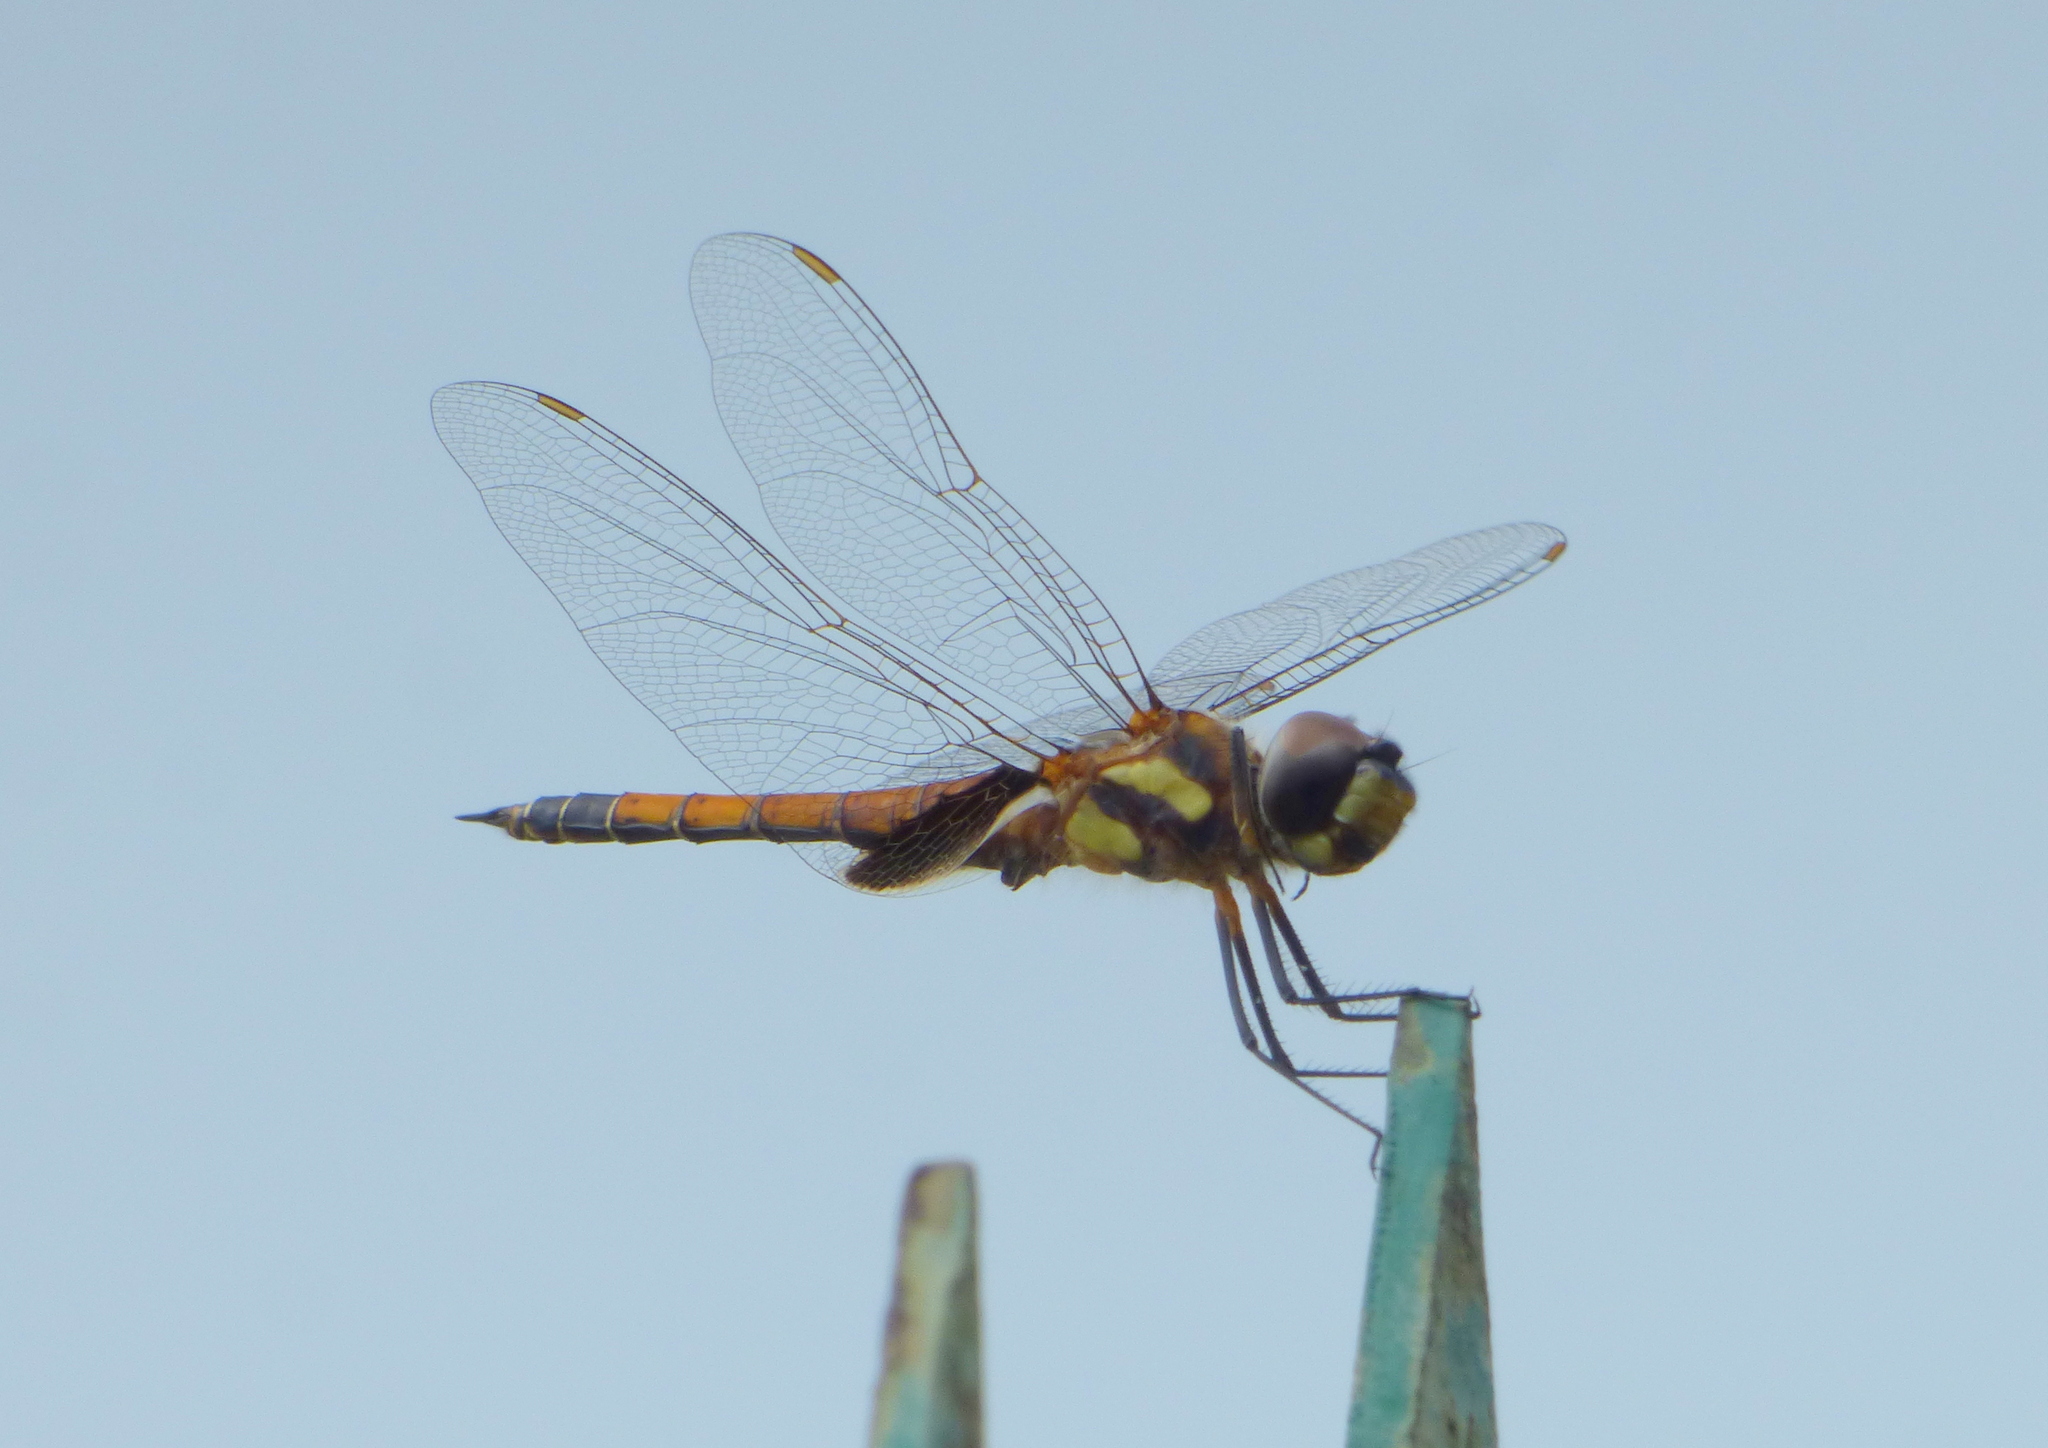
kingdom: Animalia
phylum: Arthropoda
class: Insecta
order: Odonata
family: Libellulidae
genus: Tramea
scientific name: Tramea cophysa
